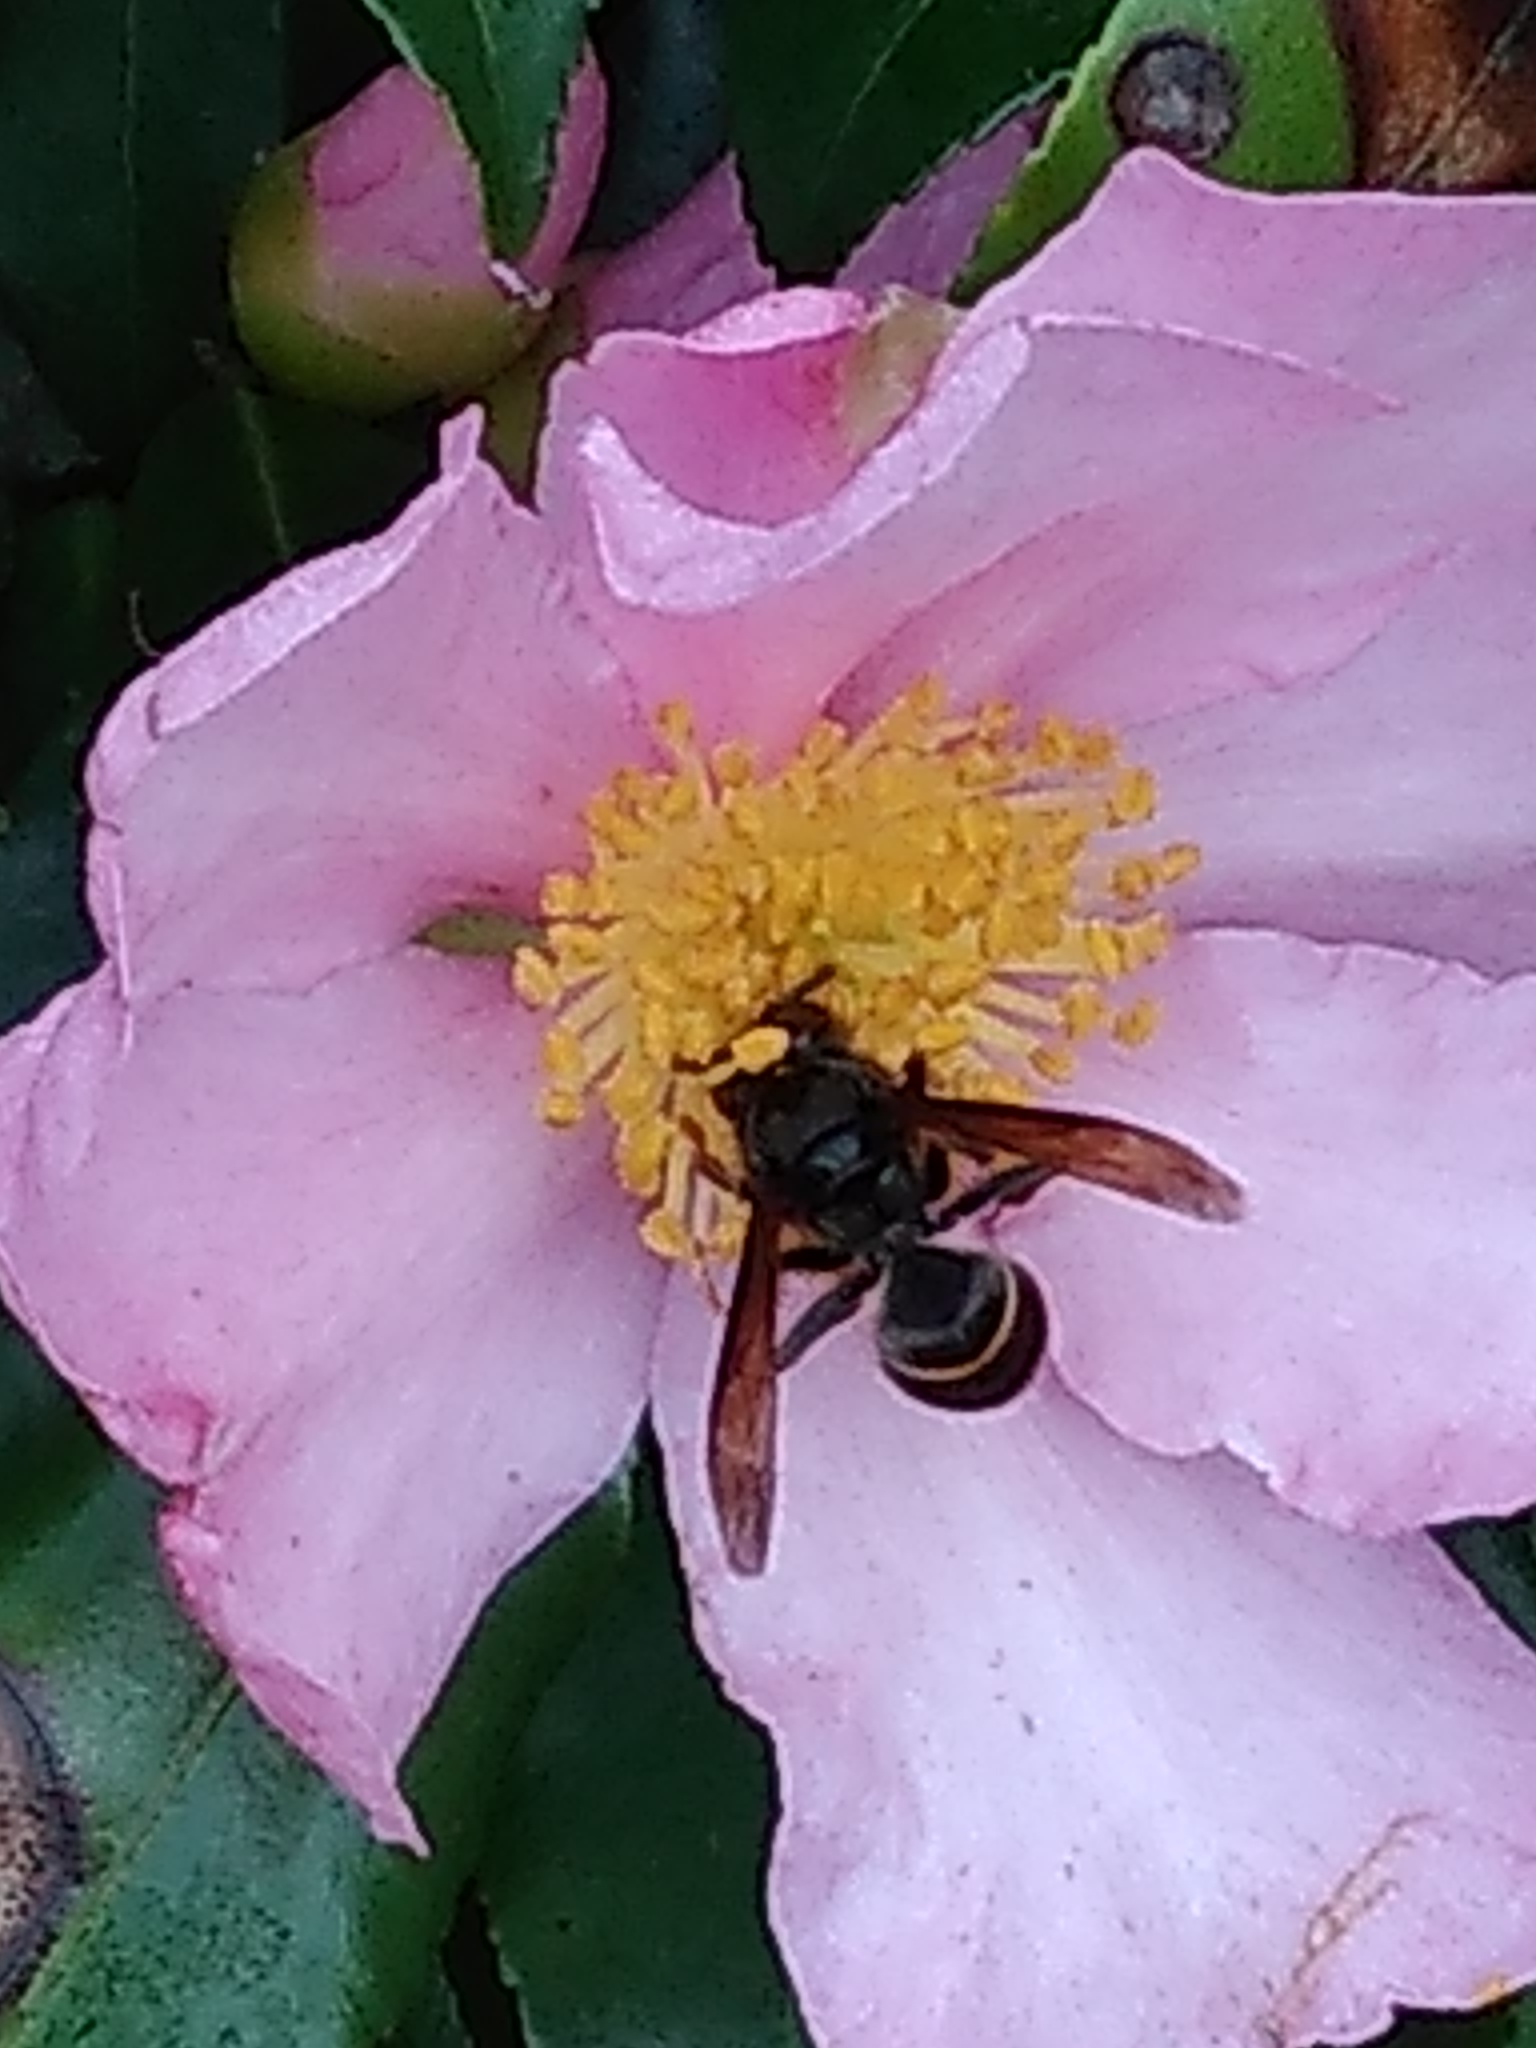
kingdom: Animalia
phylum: Arthropoda
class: Insecta
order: Hymenoptera
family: Vespidae
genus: Vespa
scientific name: Vespa velutina
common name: Asian hornet
